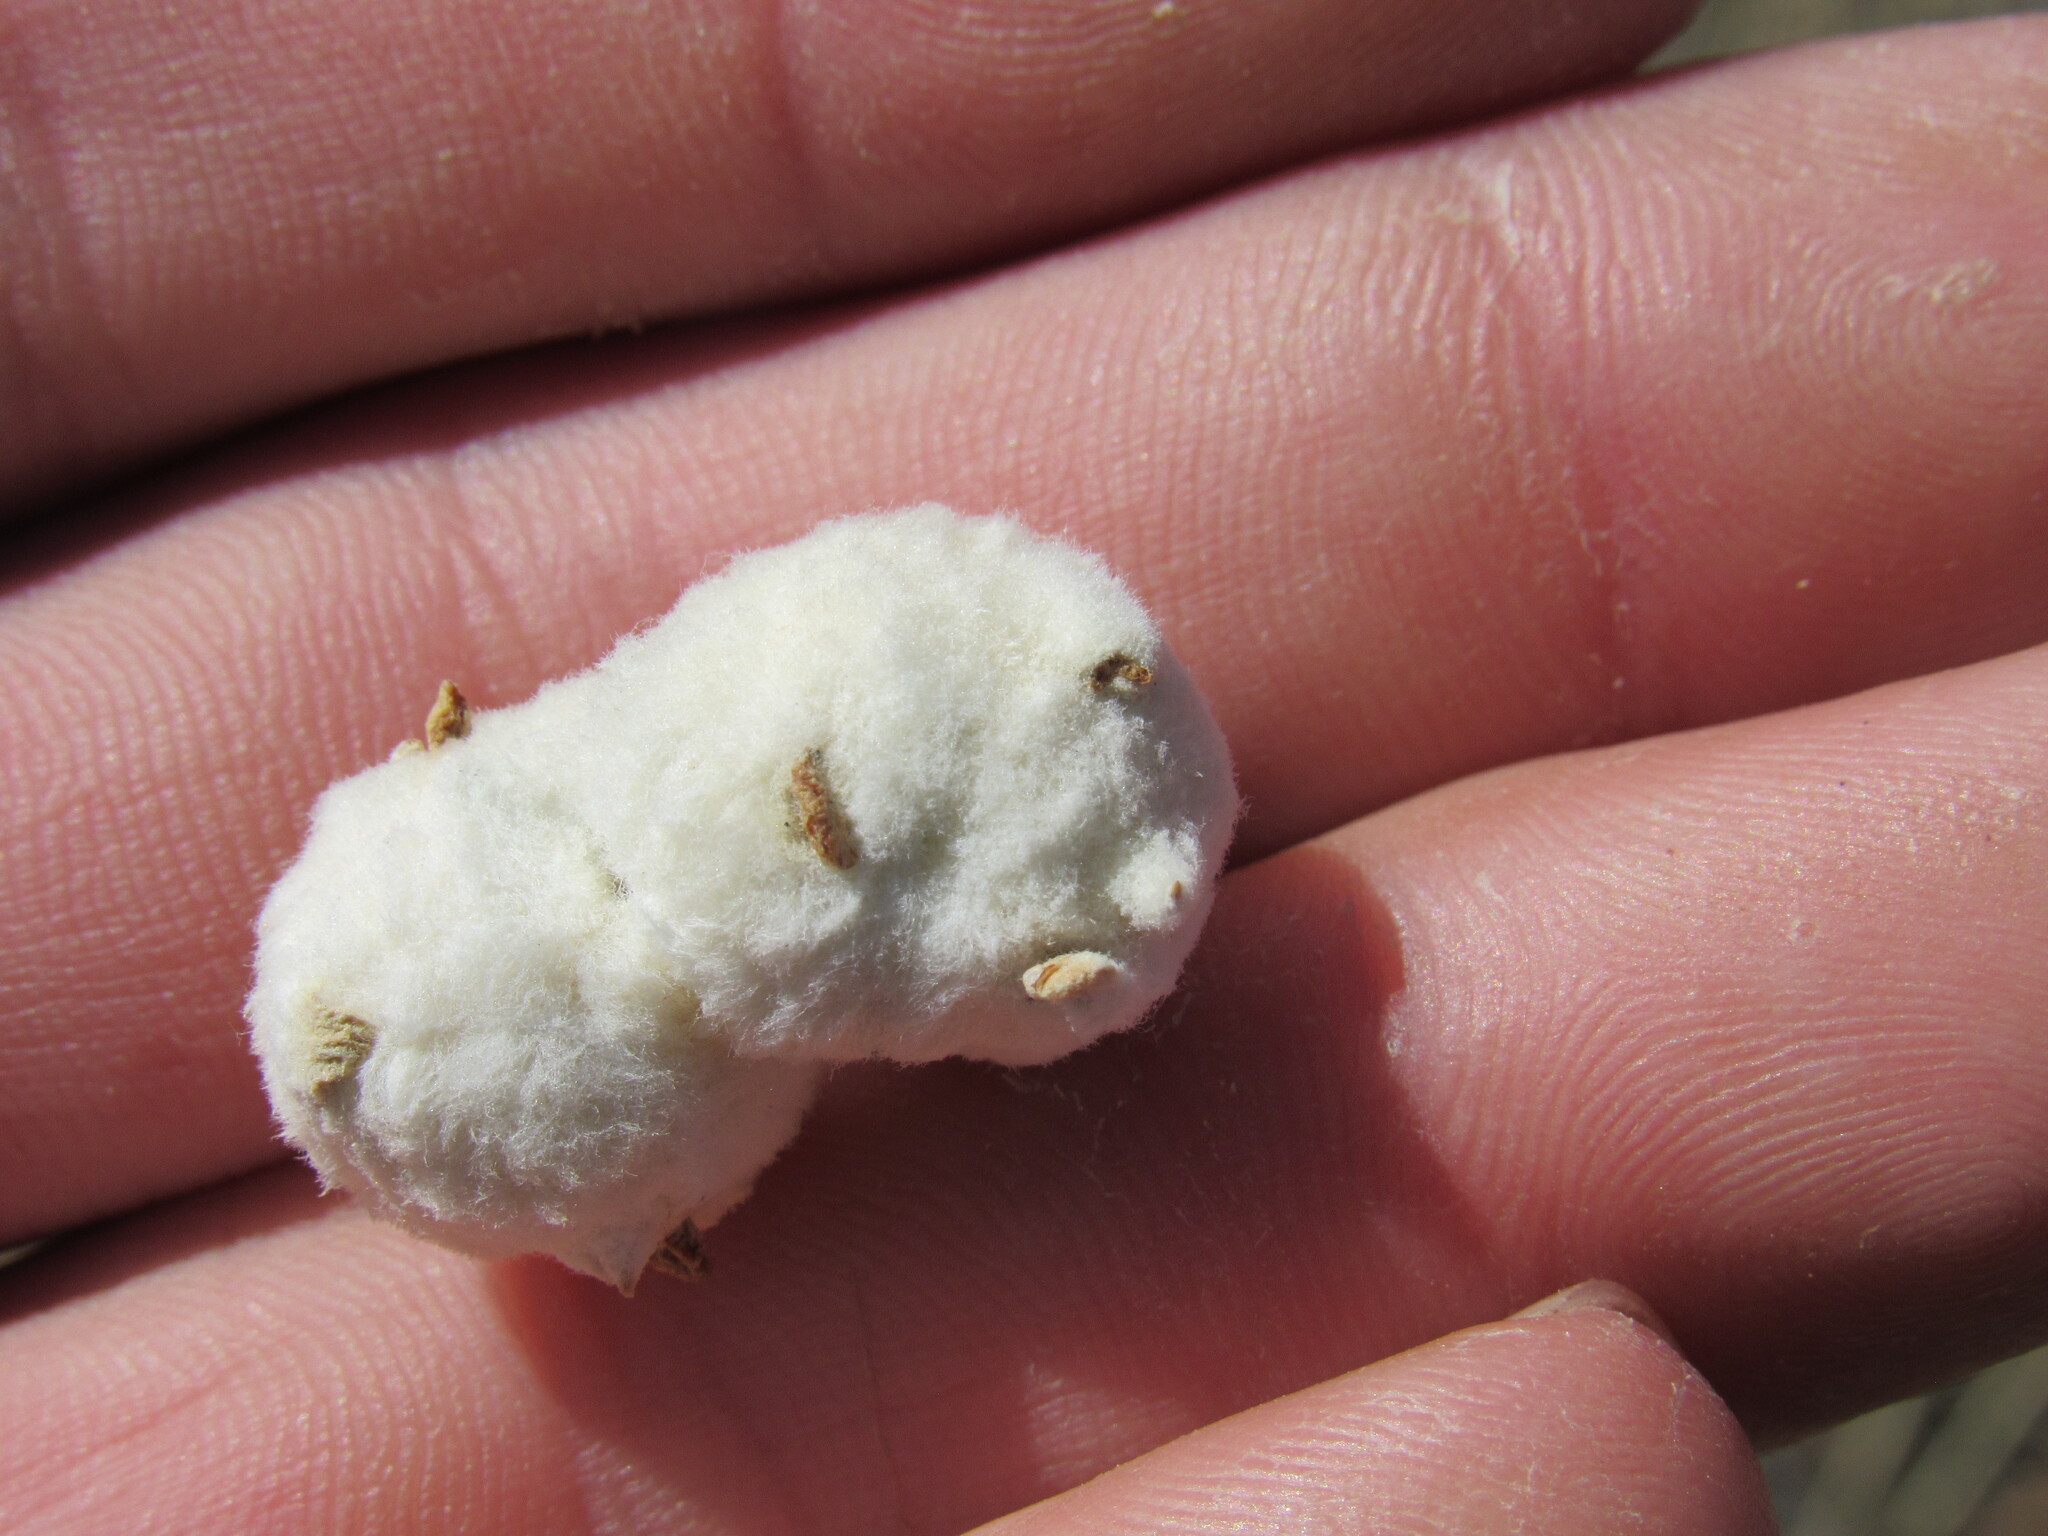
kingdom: Animalia
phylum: Arthropoda
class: Insecta
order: Diptera
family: Tephritidae
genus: Aciurina
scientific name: Aciurina bigeloviae
